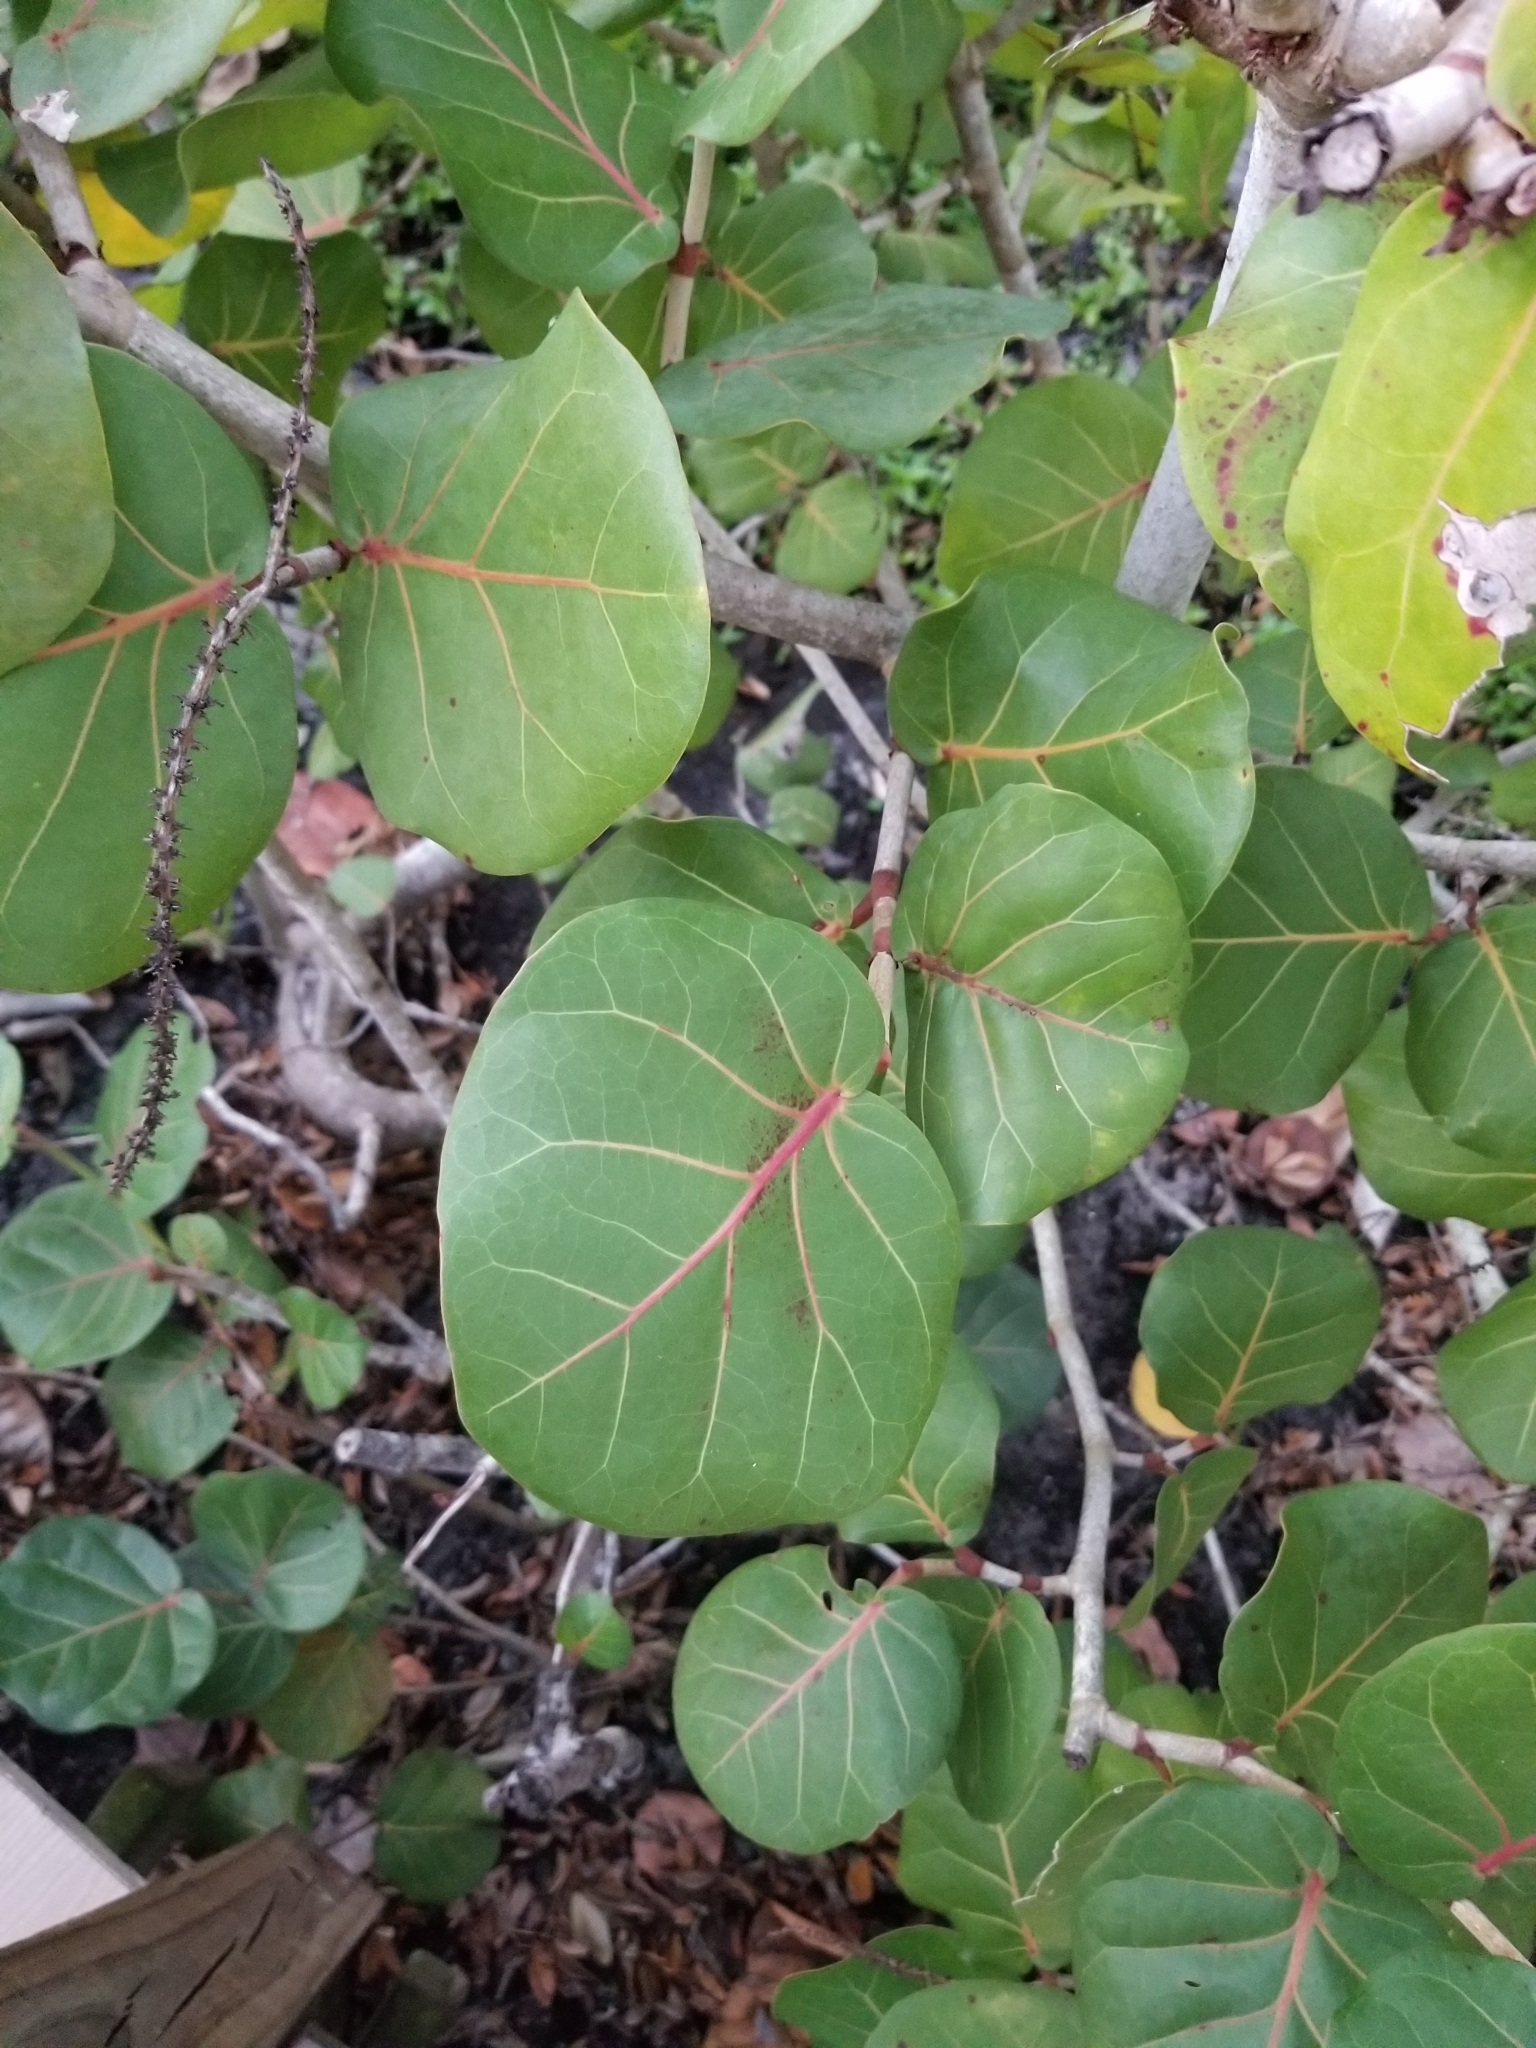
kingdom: Plantae
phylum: Tracheophyta
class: Magnoliopsida
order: Caryophyllales
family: Polygonaceae
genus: Coccoloba
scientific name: Coccoloba uvifera
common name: Seagrape
